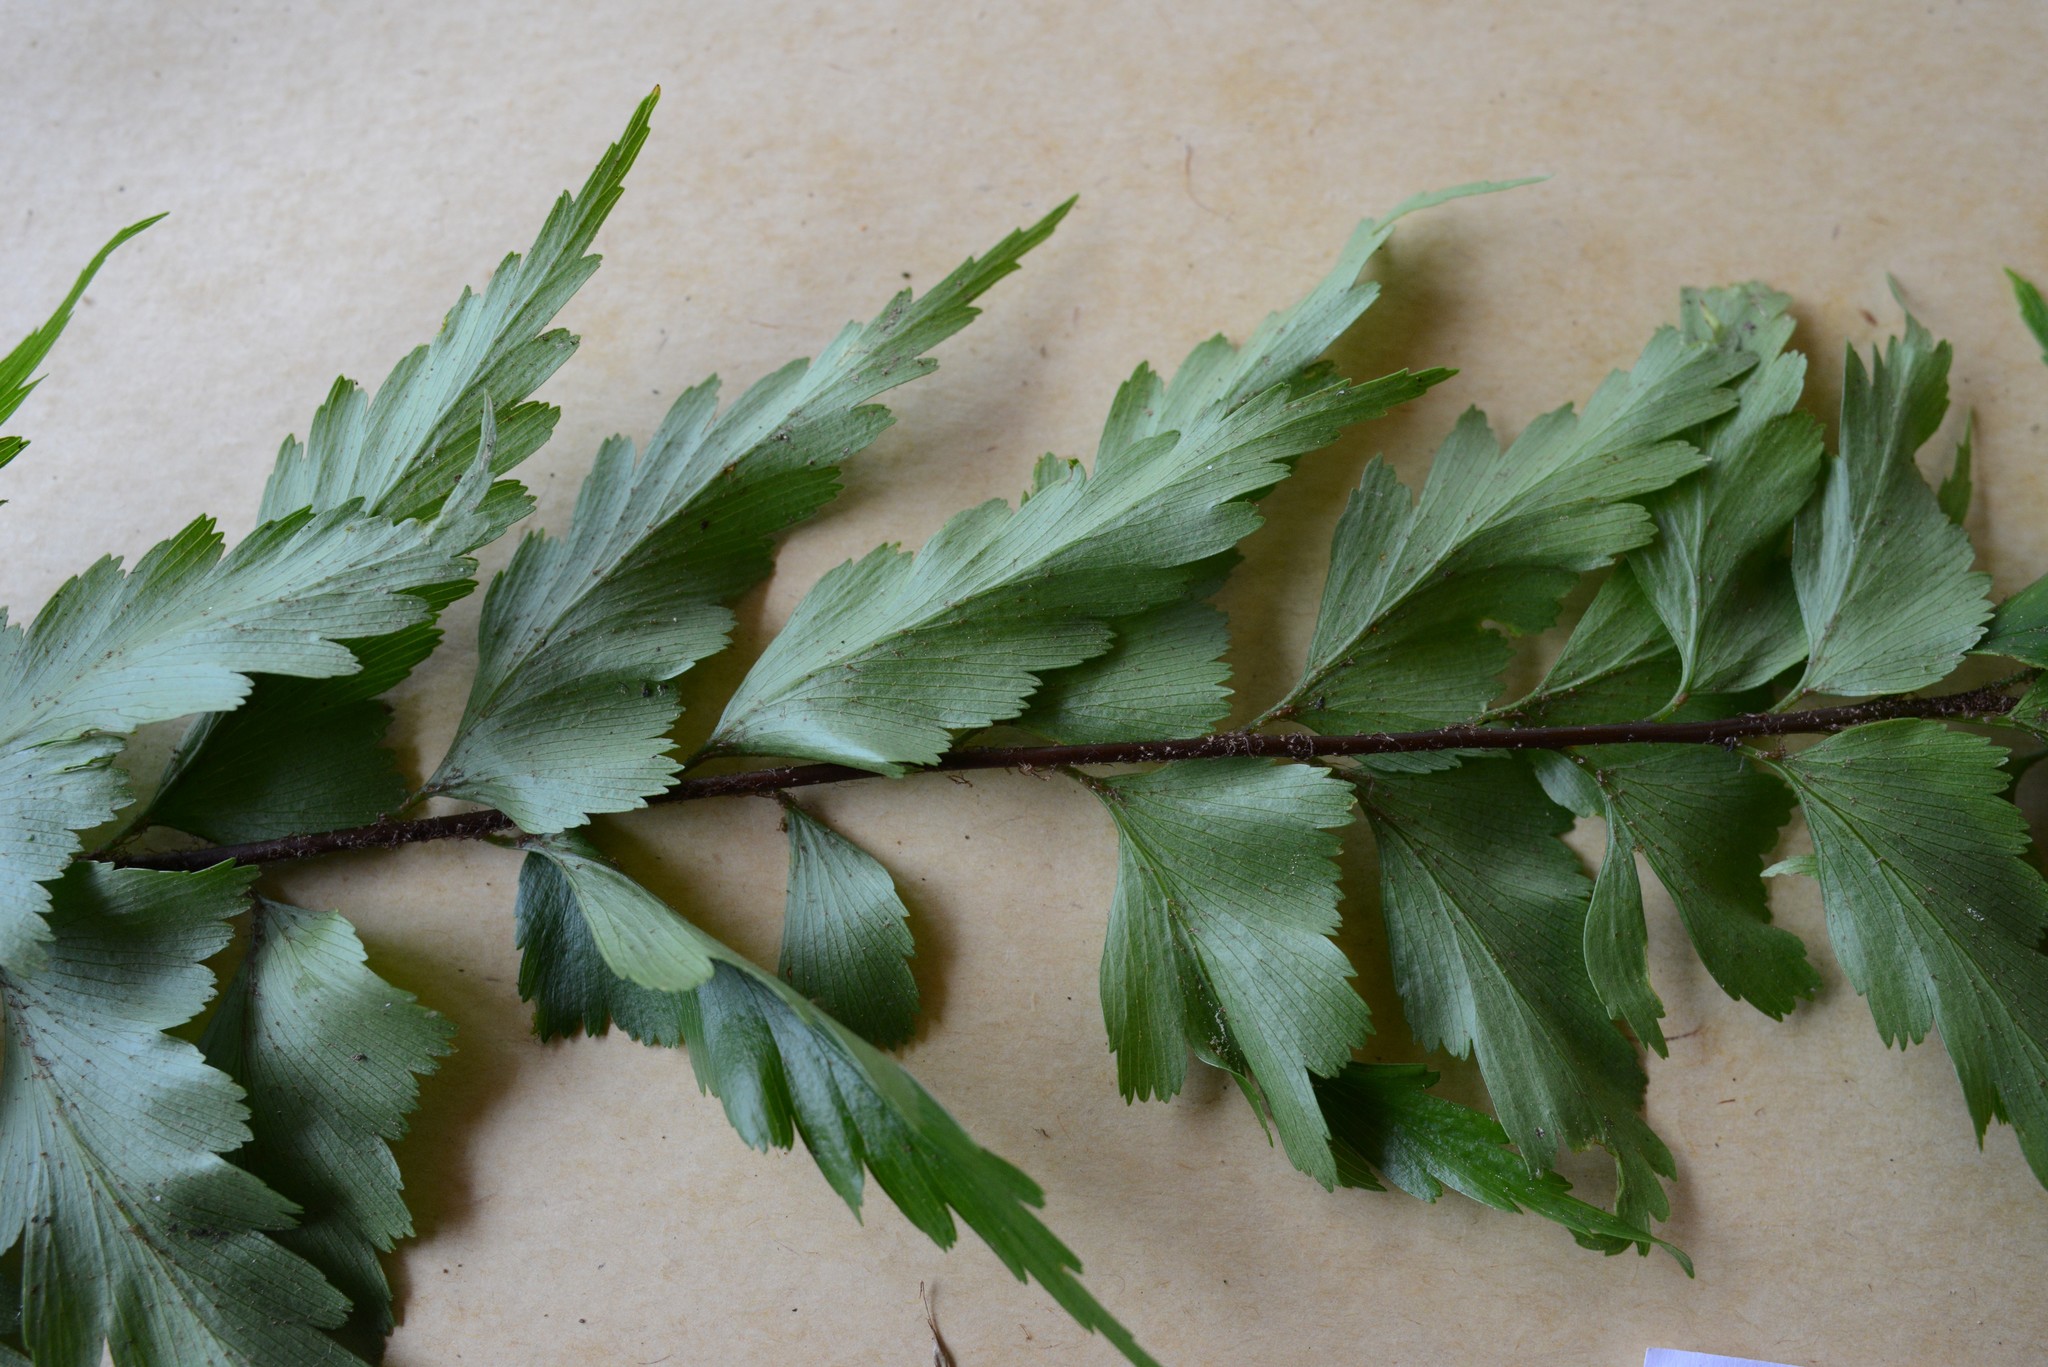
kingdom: Plantae
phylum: Tracheophyta
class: Polypodiopsida
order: Polypodiales
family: Aspleniaceae
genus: Asplenium
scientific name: Asplenium polyodon
